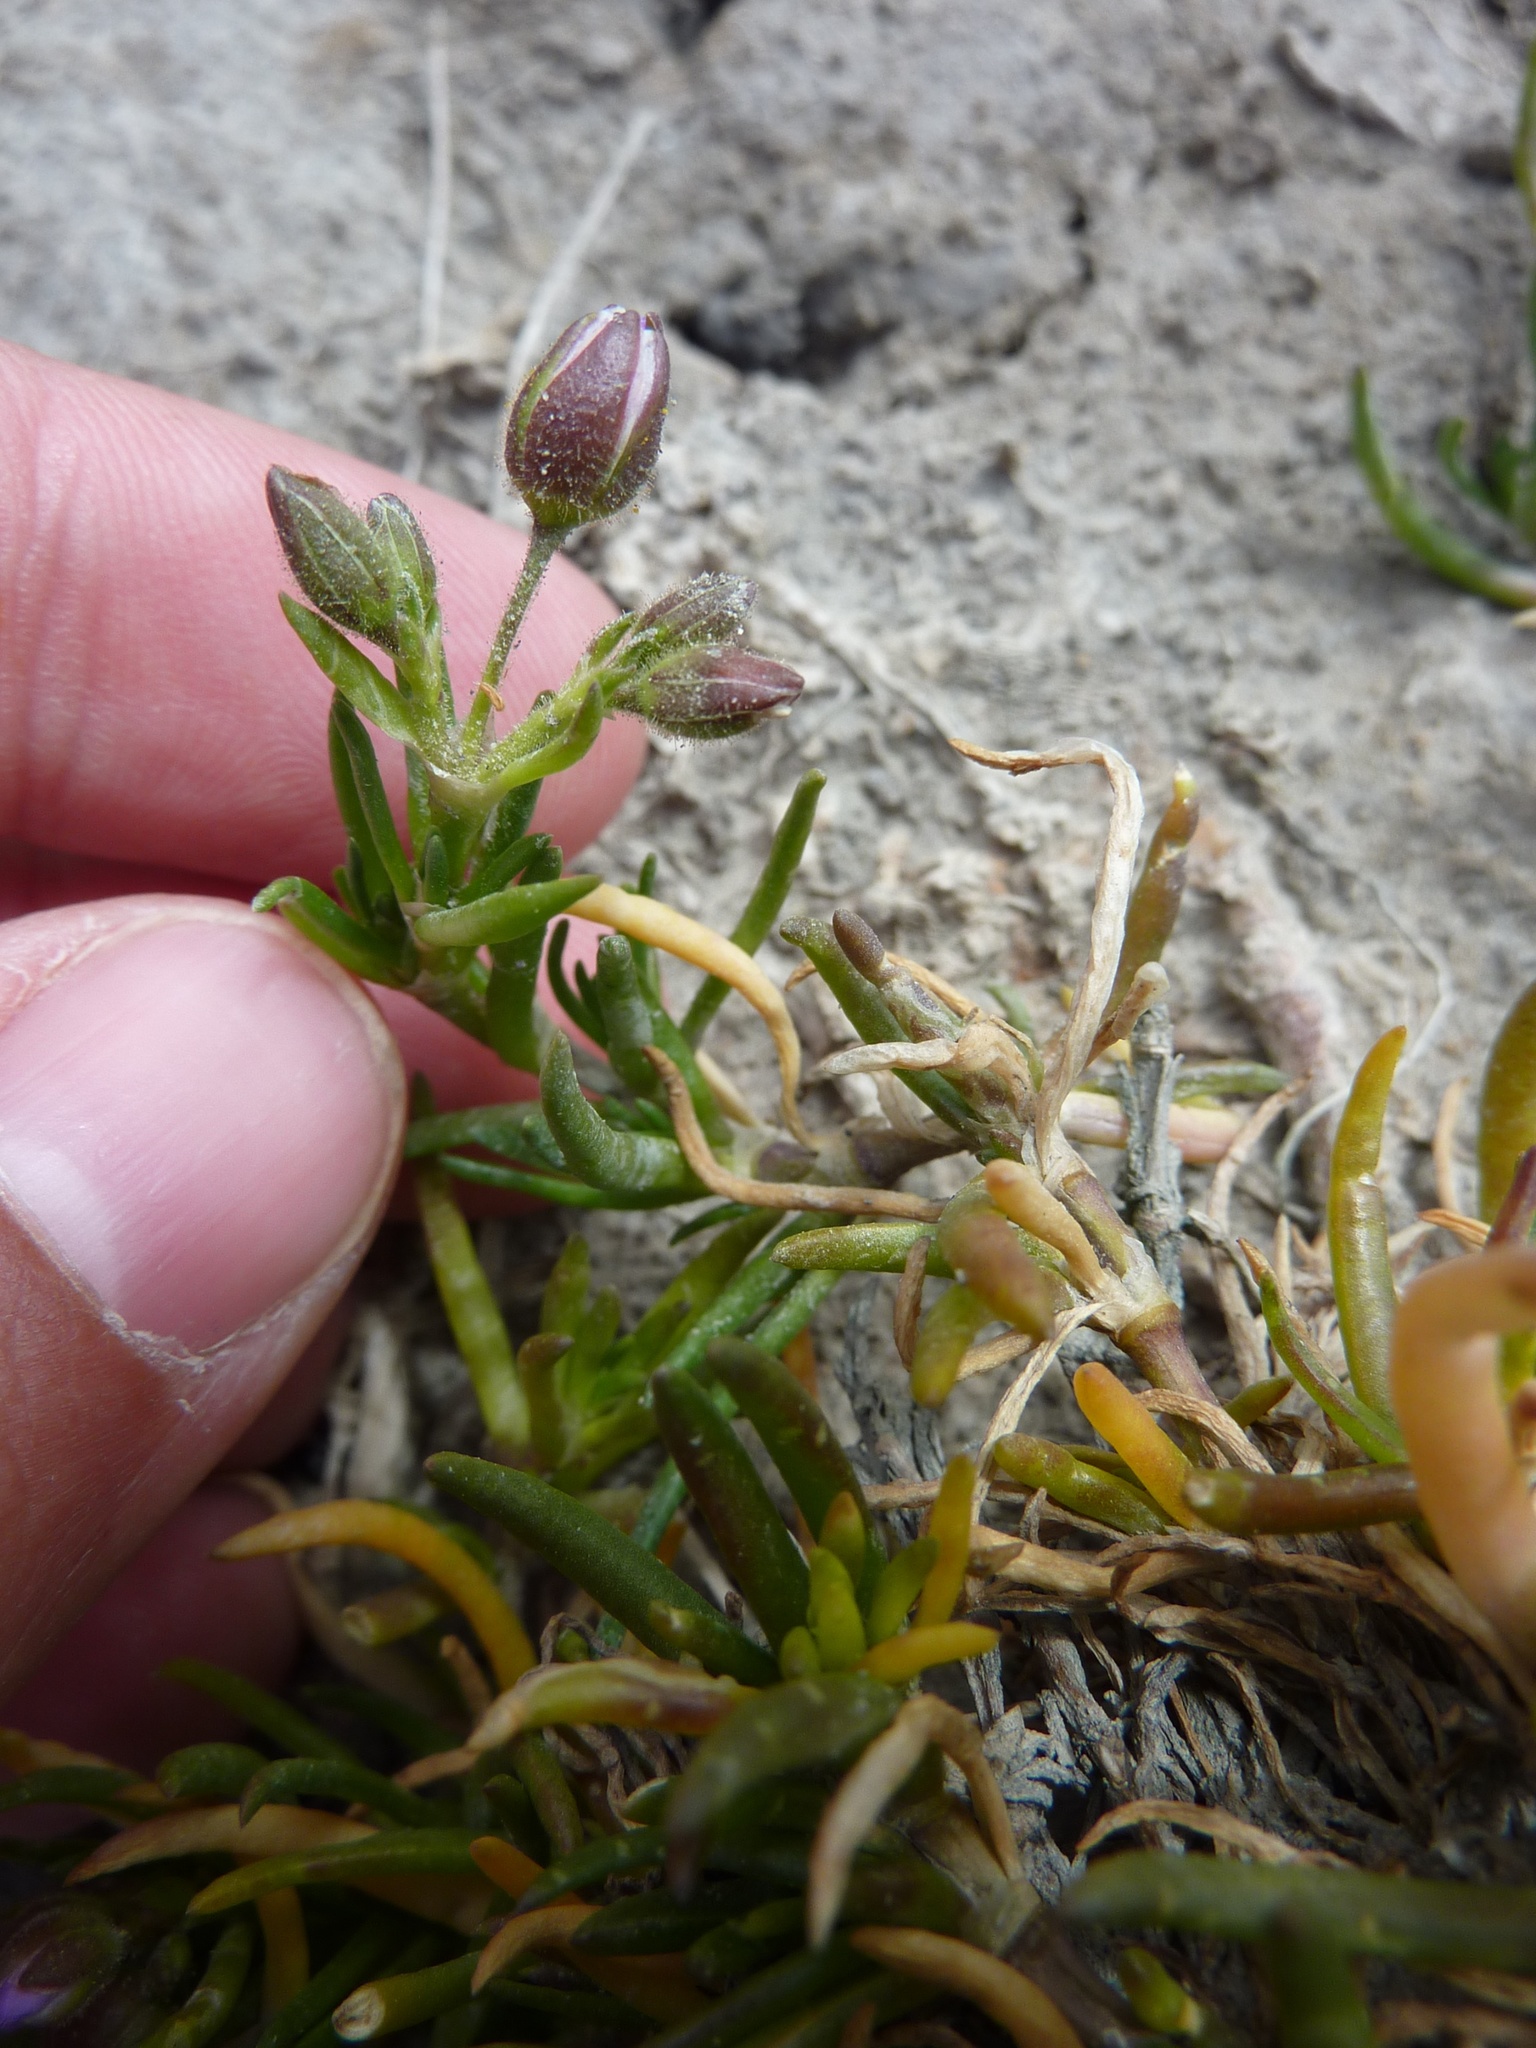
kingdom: Plantae
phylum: Tracheophyta
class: Magnoliopsida
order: Caryophyllales
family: Caryophyllaceae
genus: Spergularia
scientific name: Spergularia media
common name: Greater sea-spurrey
